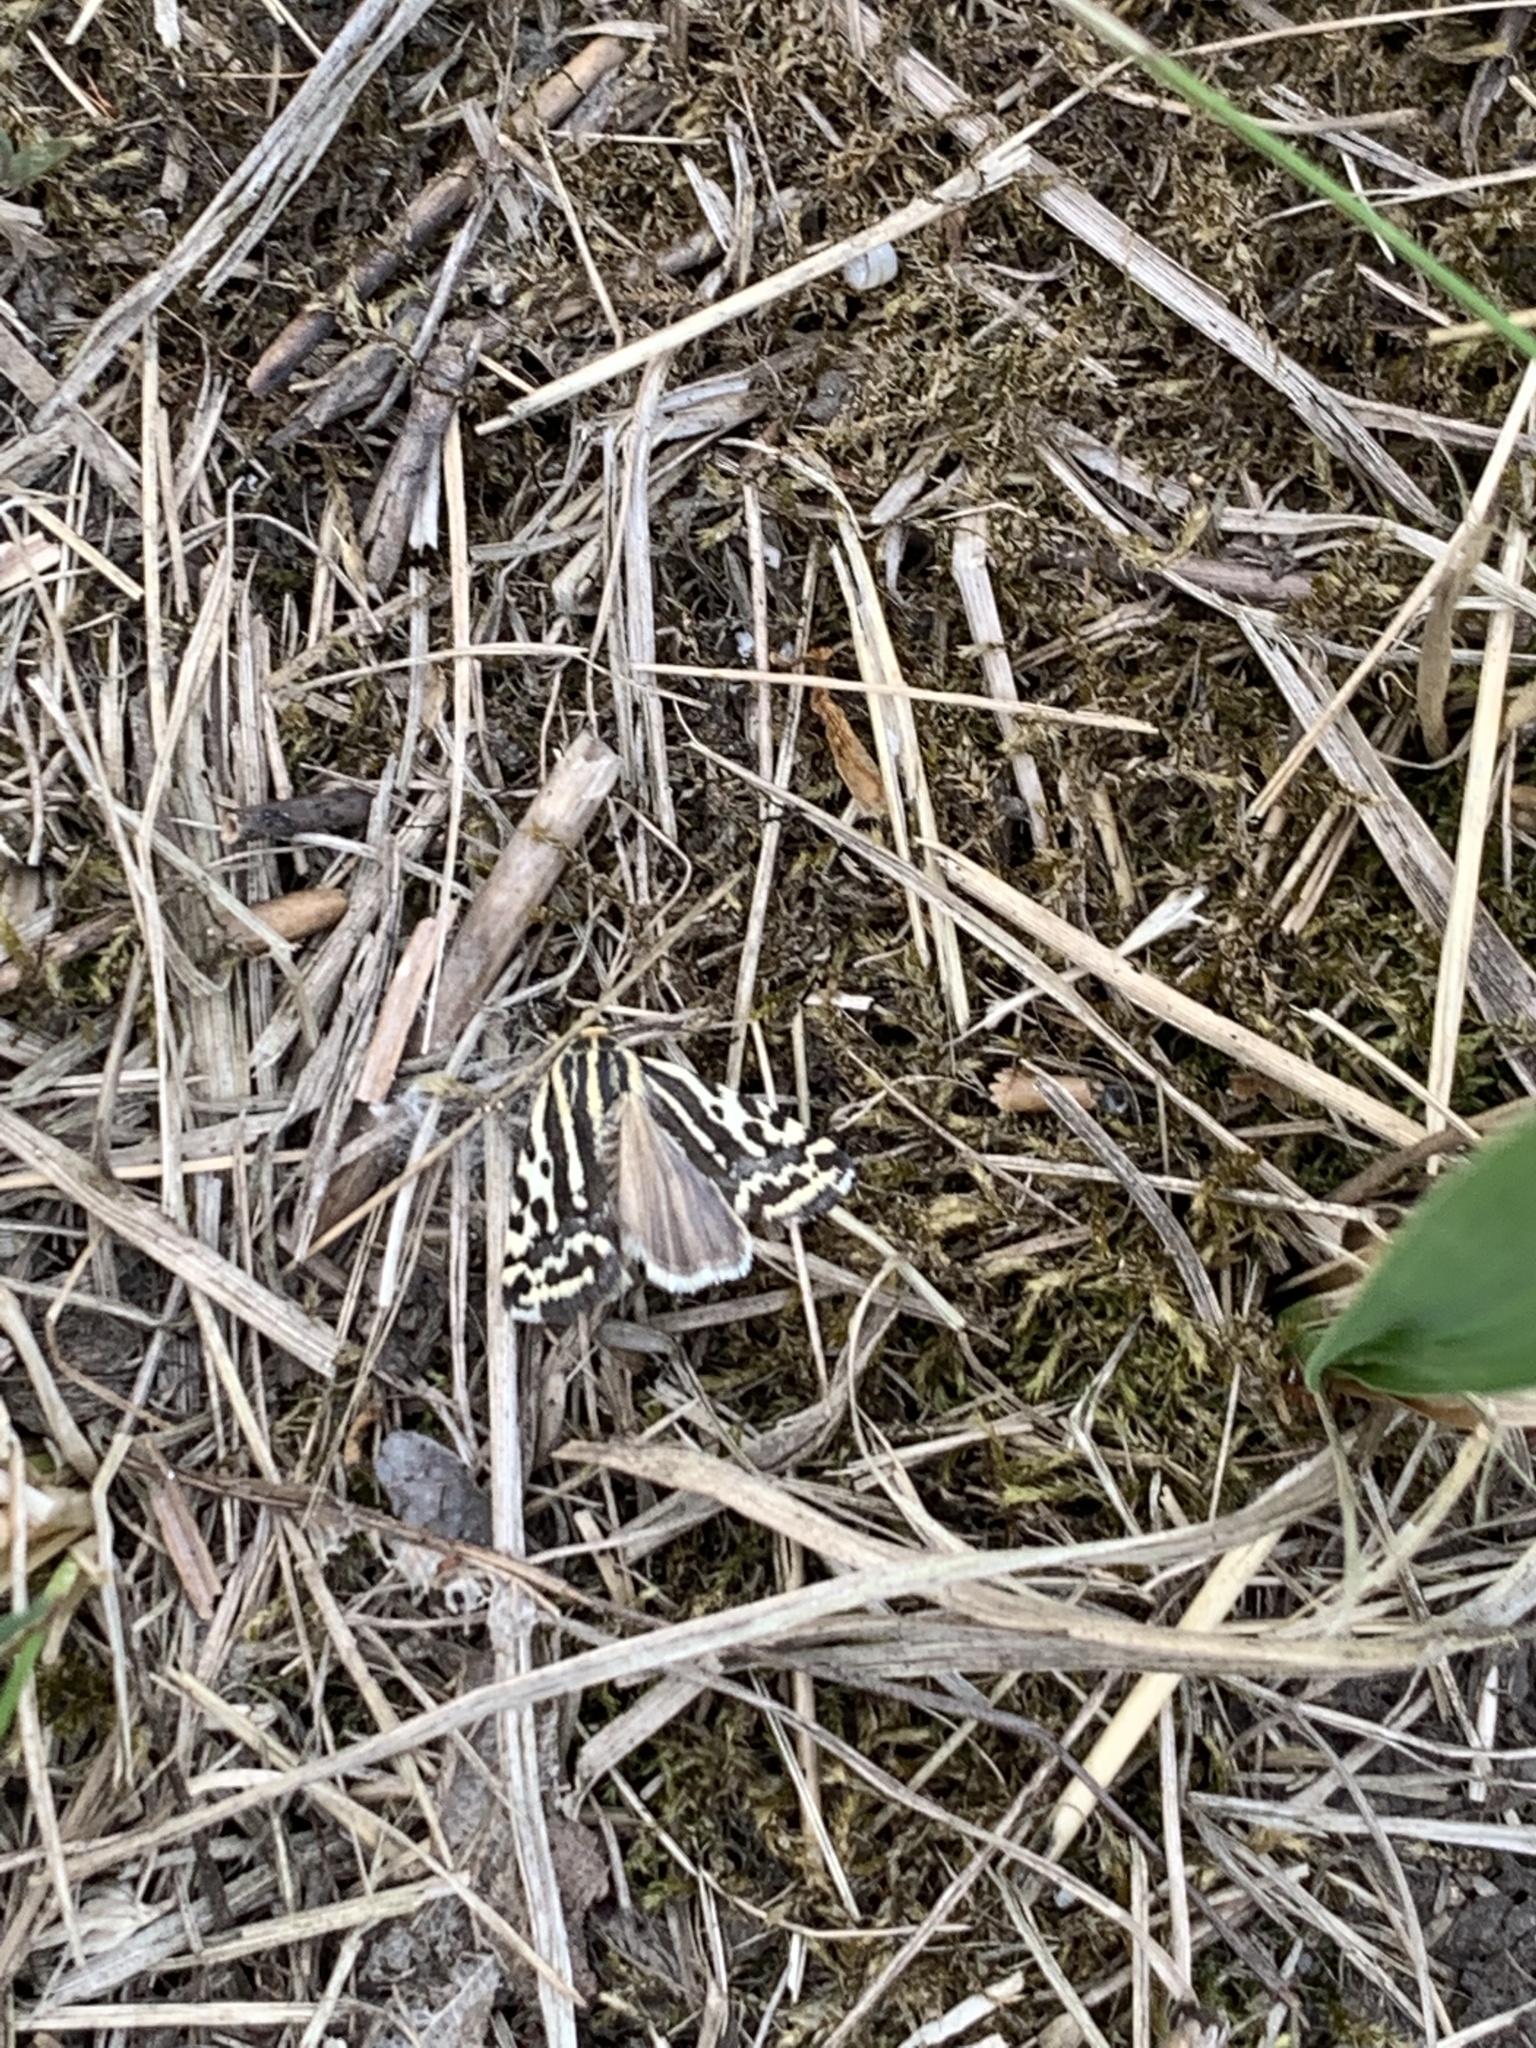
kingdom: Animalia
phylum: Arthropoda
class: Insecta
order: Lepidoptera
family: Noctuidae
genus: Acontia
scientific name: Acontia trabealis
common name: Spotted sulphur
